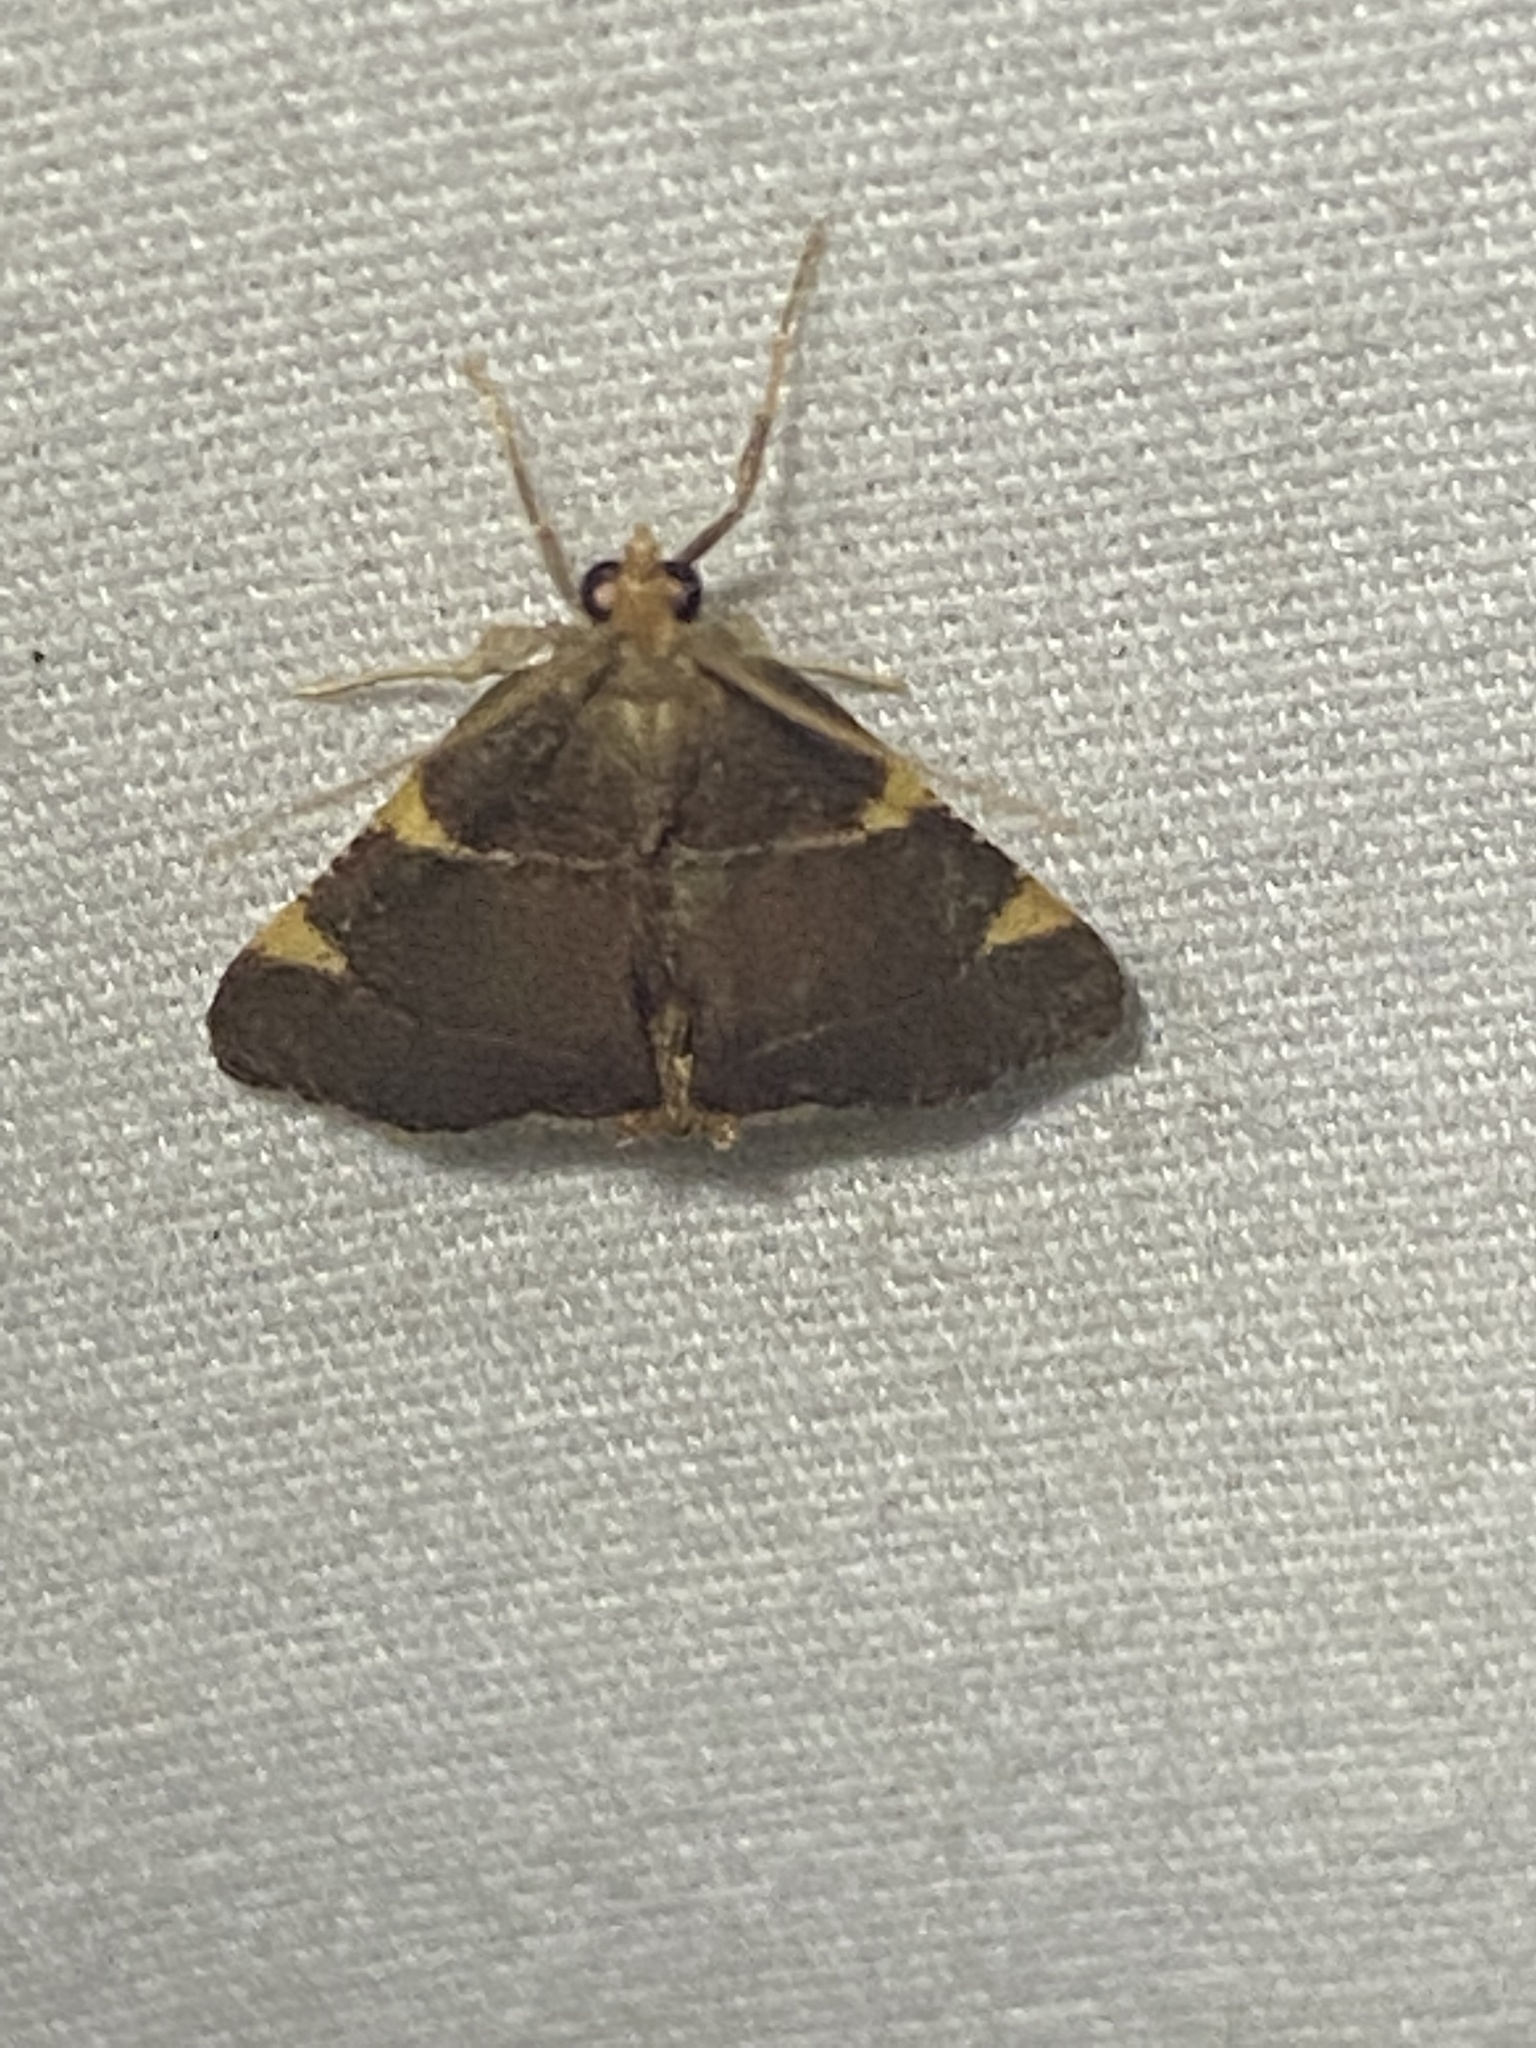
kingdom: Animalia
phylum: Arthropoda
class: Insecta
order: Lepidoptera
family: Pyralidae
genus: Hypsopygia
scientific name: Hypsopygia olinalis
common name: Yellow-fringed dolichomia moth
